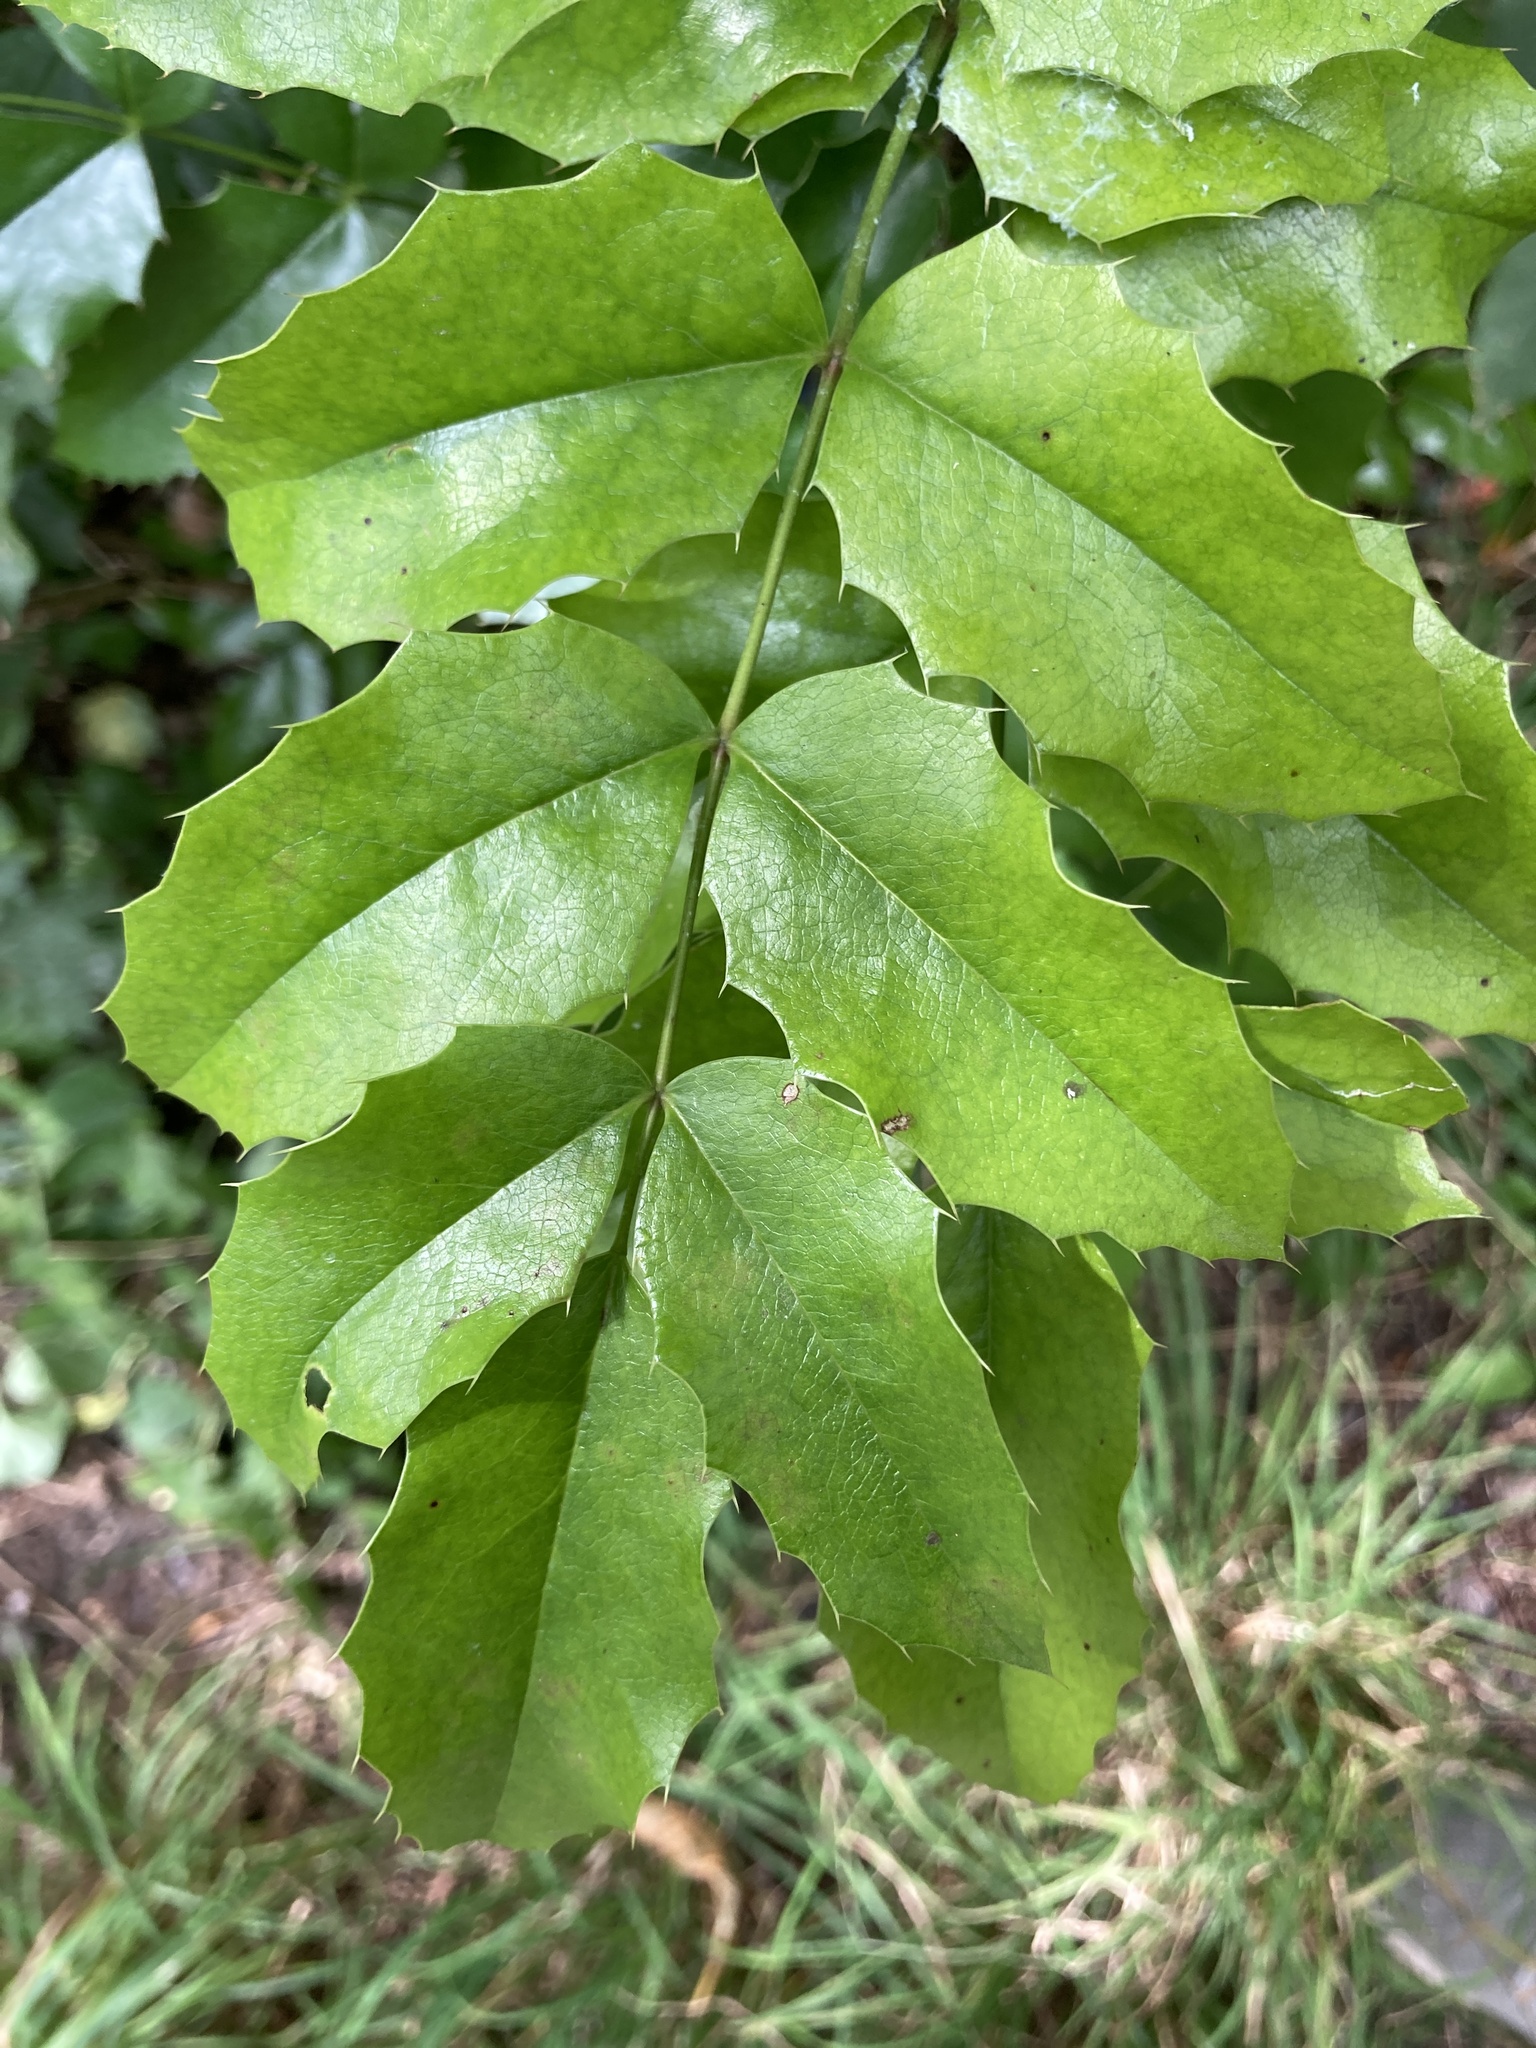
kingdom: Plantae
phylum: Tracheophyta
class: Magnoliopsida
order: Ranunculales
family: Berberidaceae
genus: Mahonia
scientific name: Mahonia aquifolium
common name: Oregon-grape
